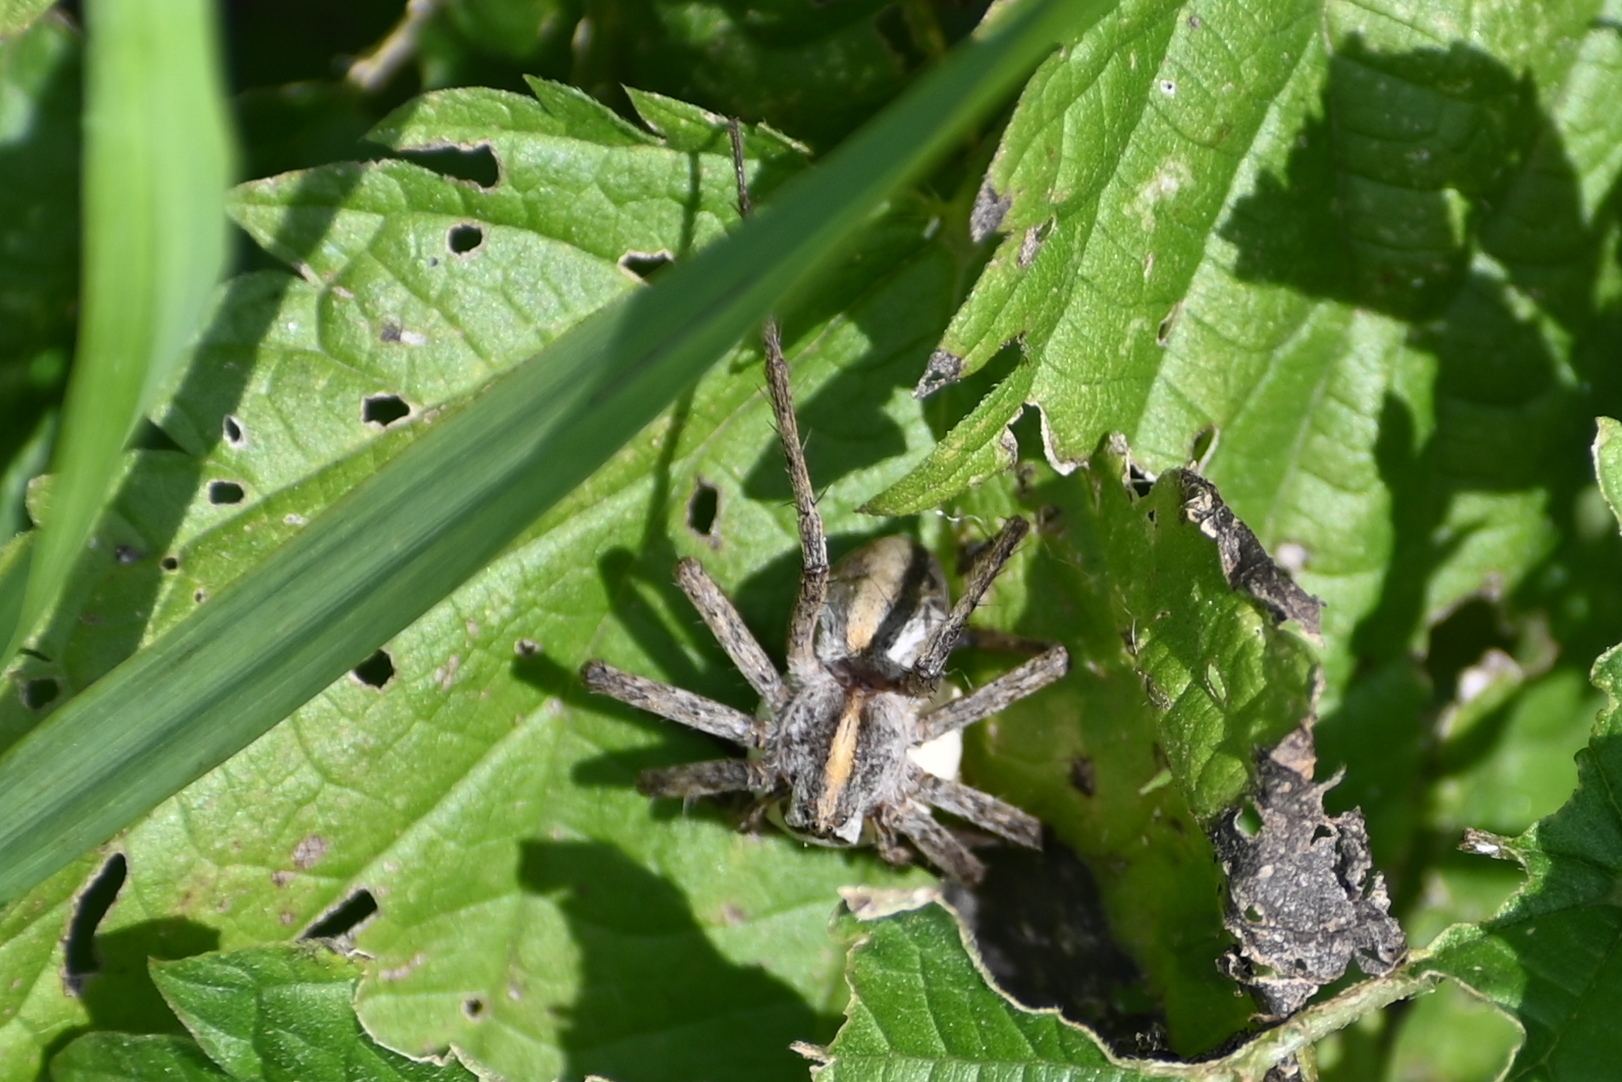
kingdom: Animalia
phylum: Arthropoda
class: Arachnida
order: Araneae
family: Pisauridae
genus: Pisaura
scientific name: Pisaura mirabilis
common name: Tent spider
